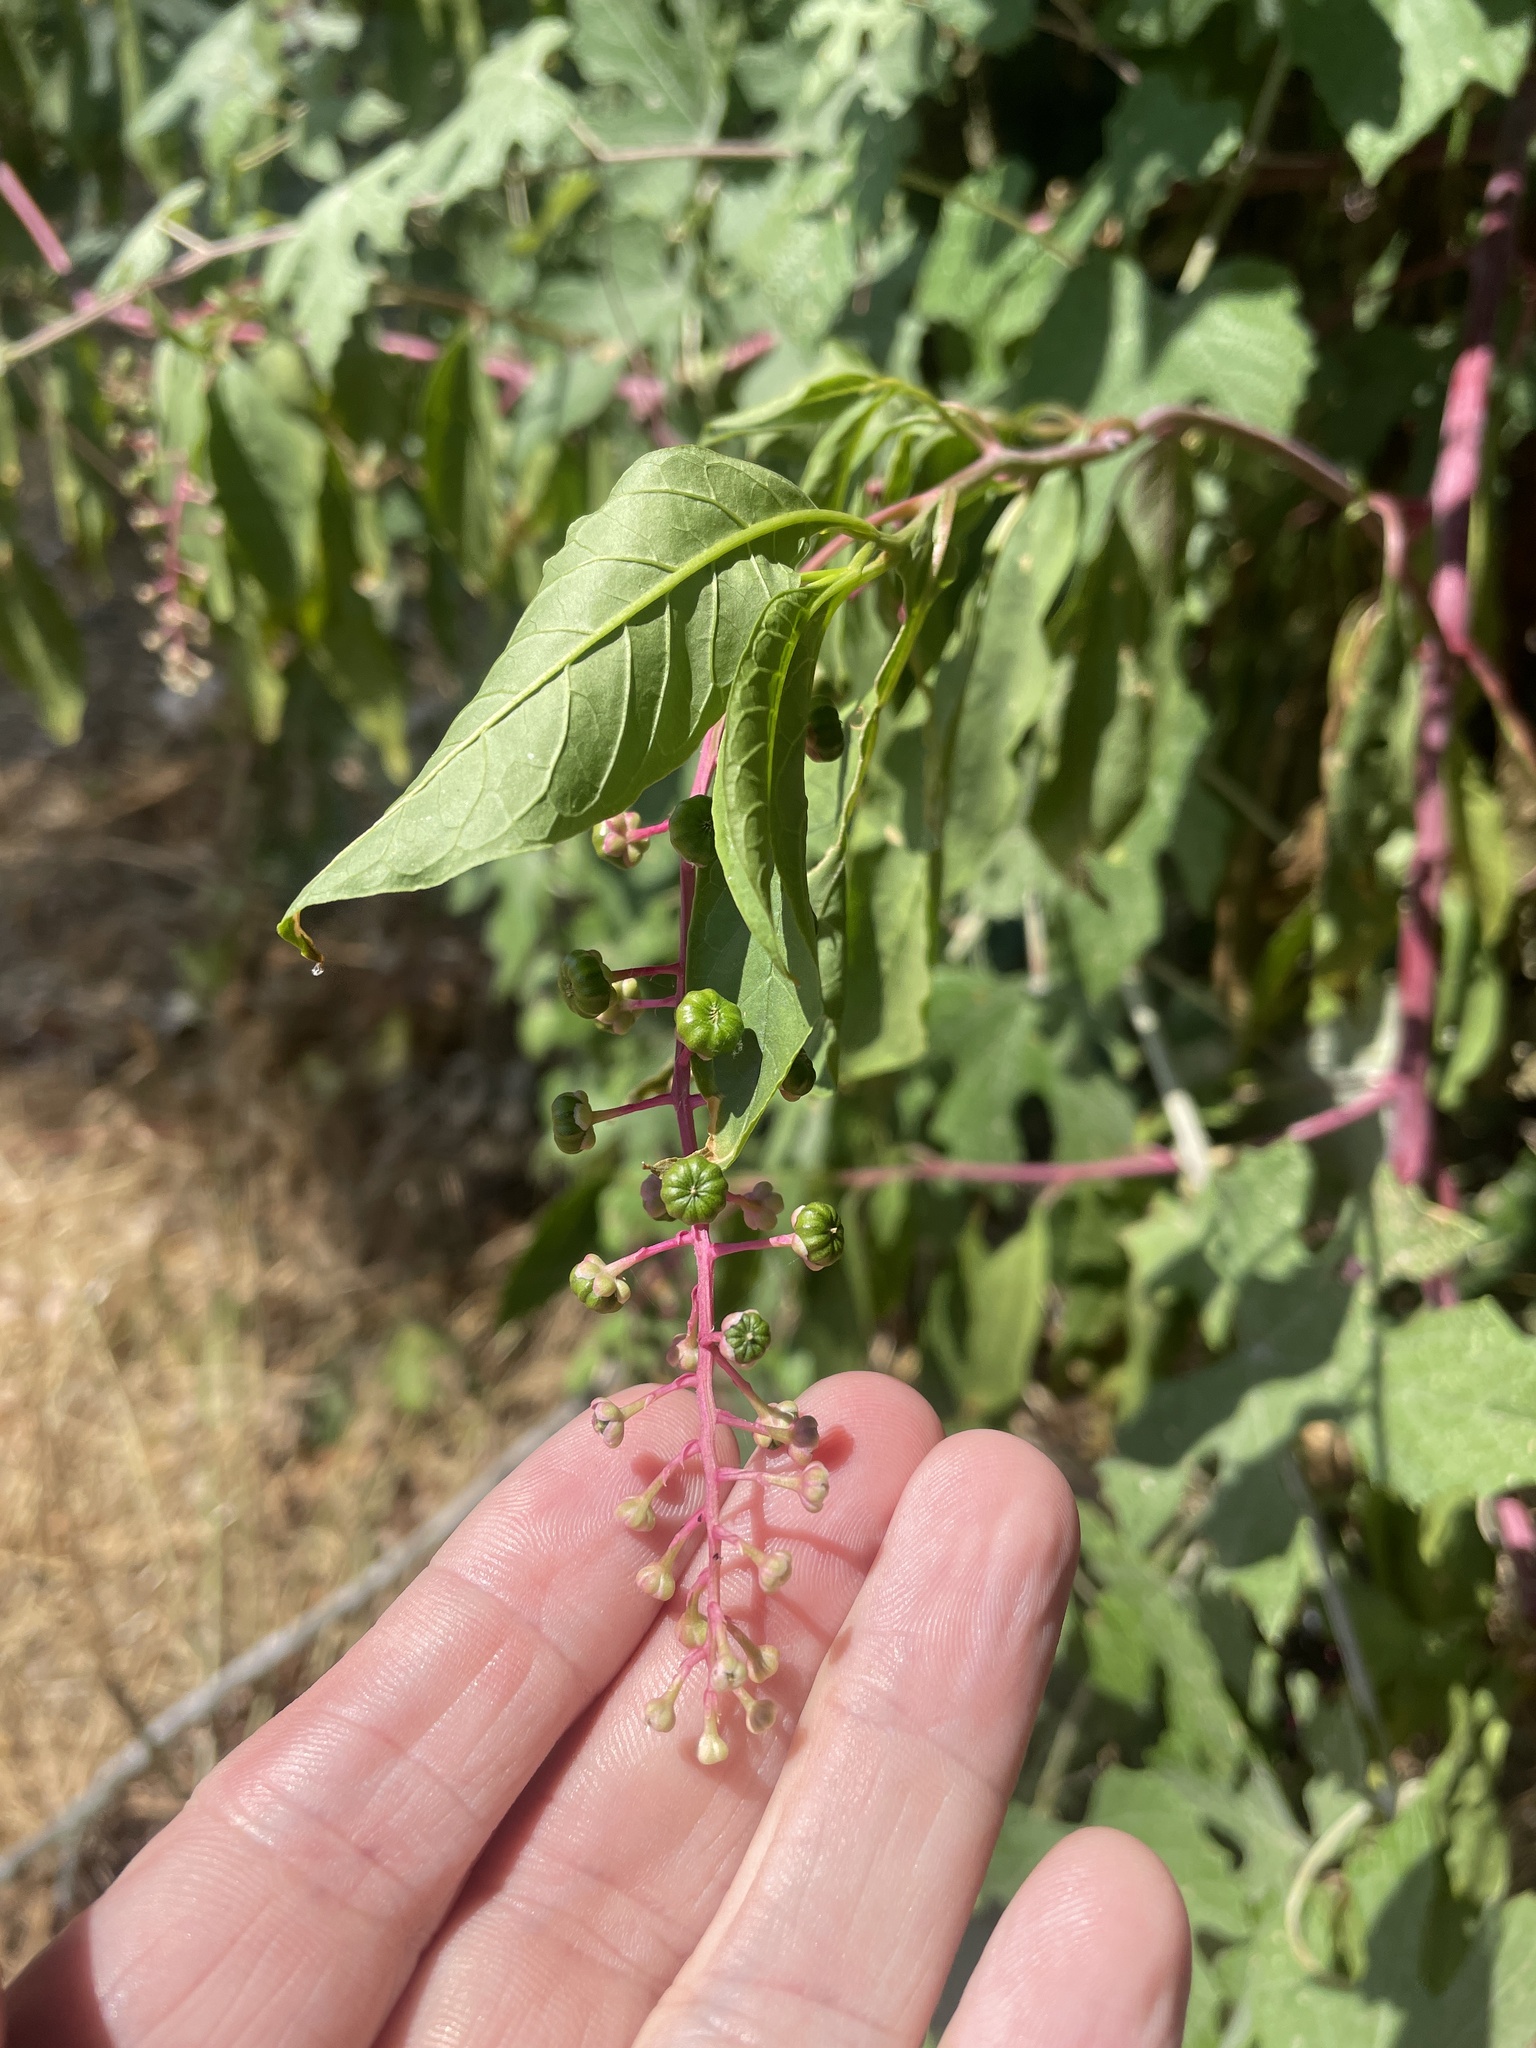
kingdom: Plantae
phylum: Tracheophyta
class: Magnoliopsida
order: Caryophyllales
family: Phytolaccaceae
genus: Phytolacca
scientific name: Phytolacca americana
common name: American pokeweed
